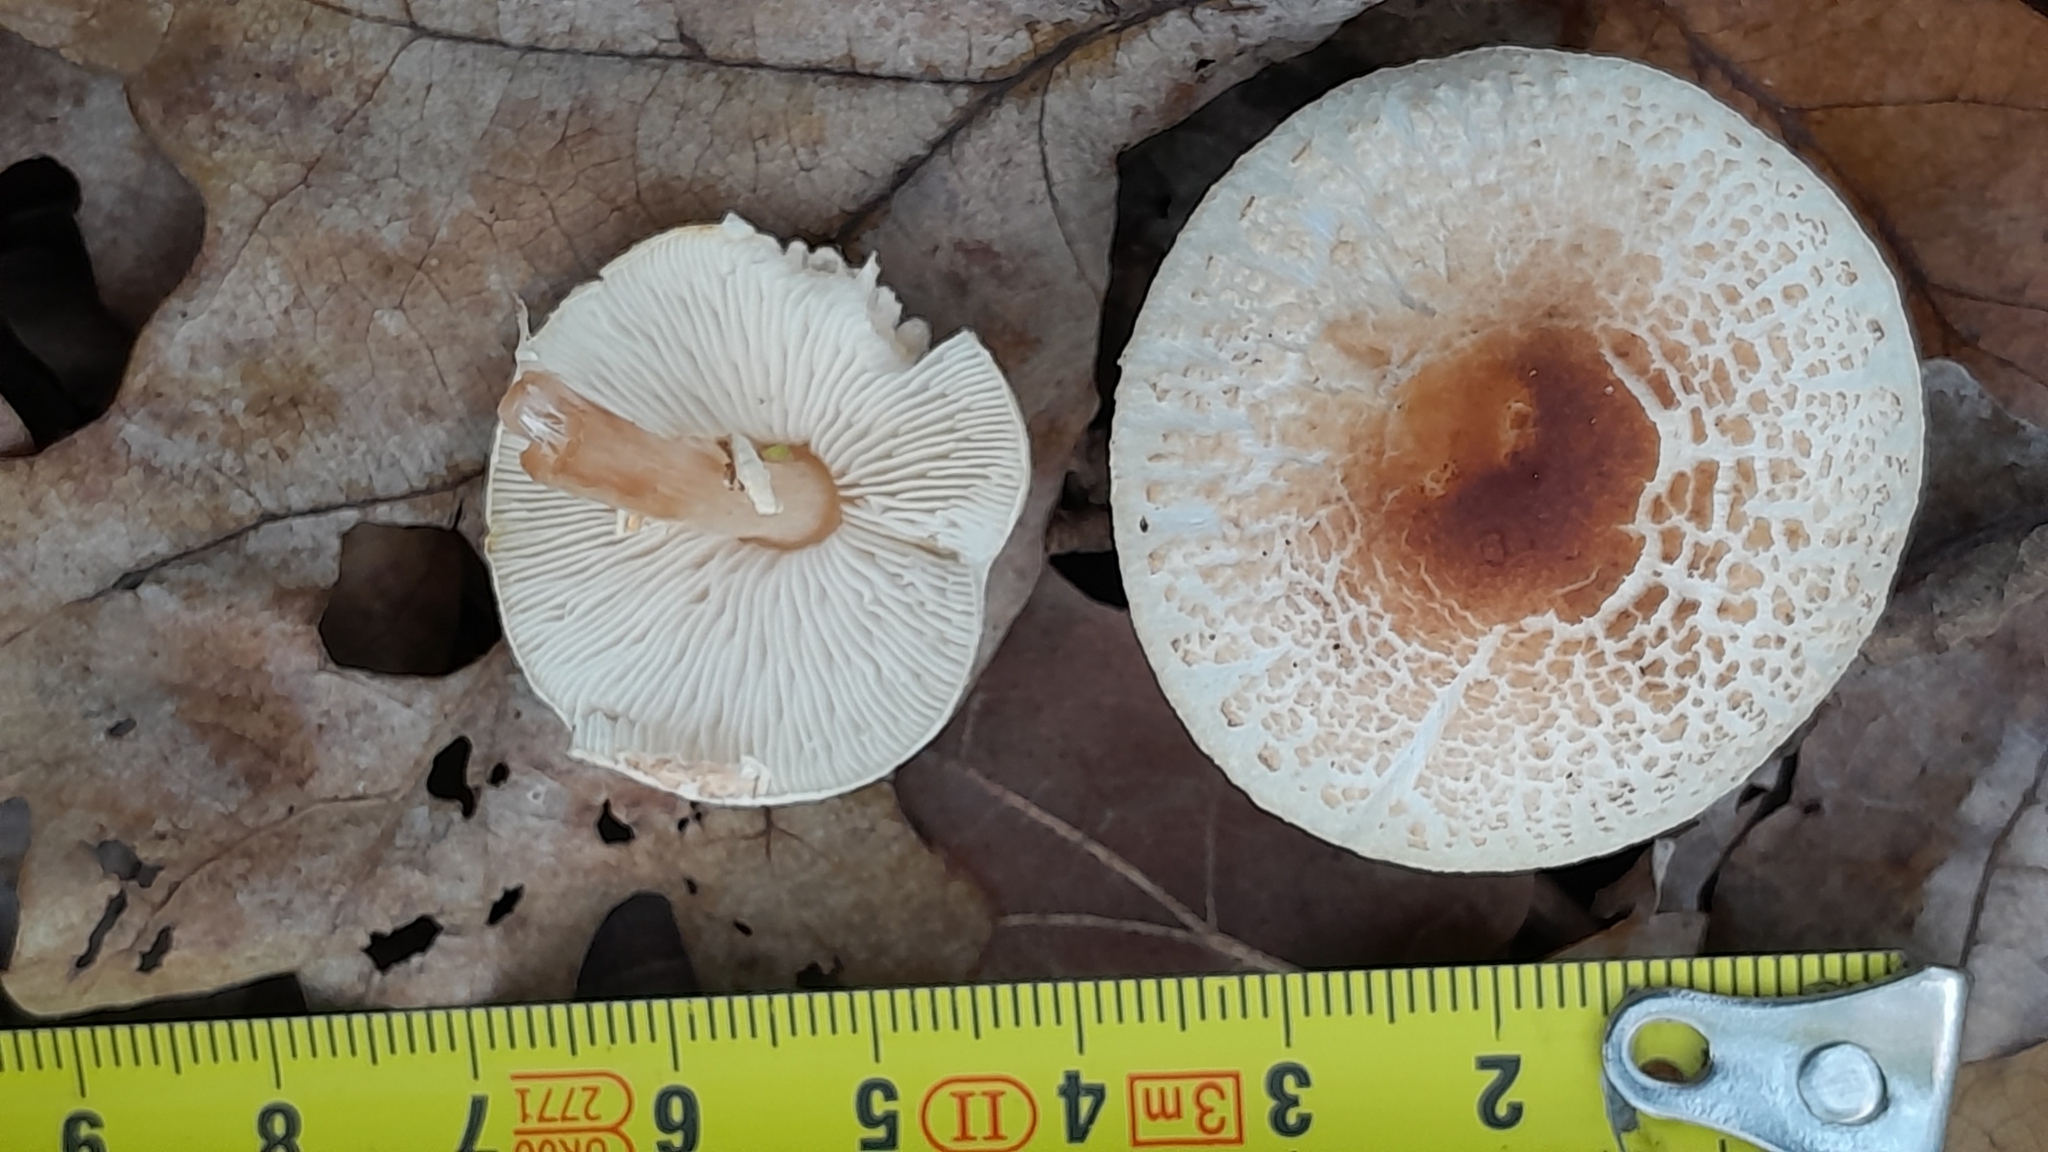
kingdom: Fungi
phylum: Basidiomycota
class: Agaricomycetes
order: Agaricales
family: Agaricaceae
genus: Lepiota
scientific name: Lepiota cristata
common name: Stinking dapperling
